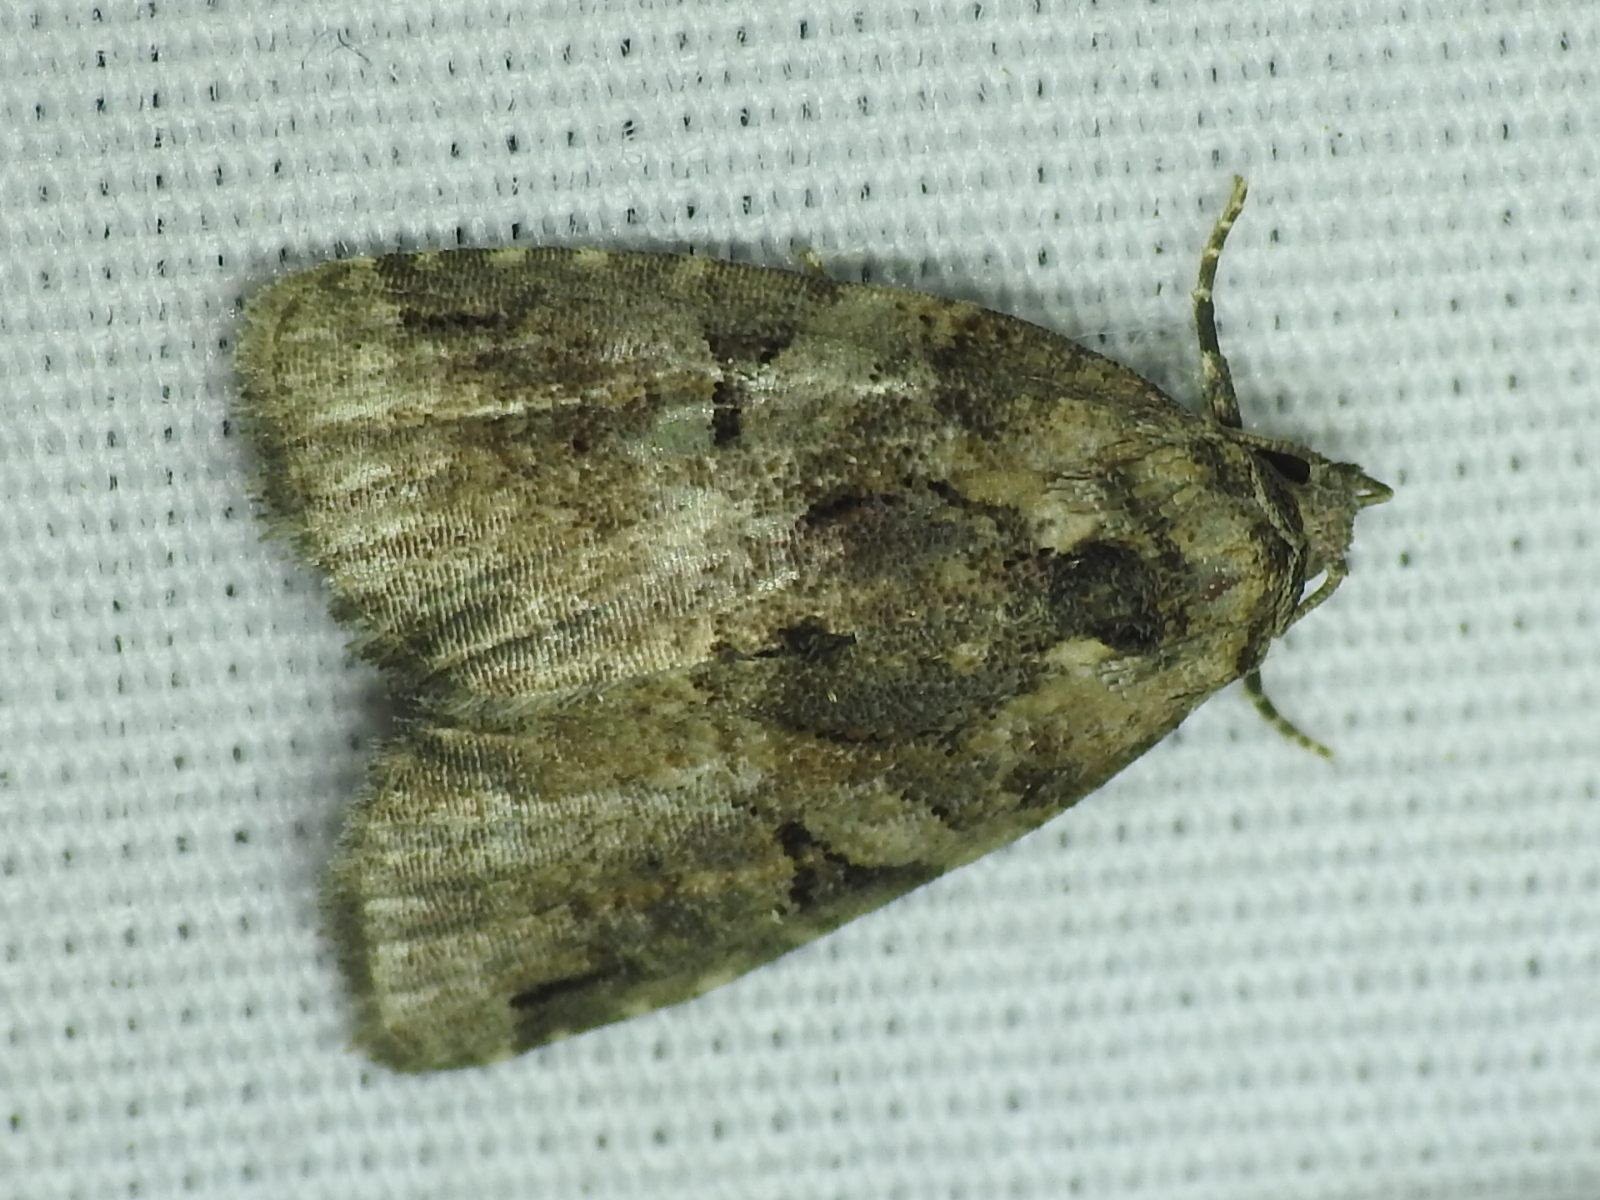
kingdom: Animalia
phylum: Arthropoda
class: Insecta
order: Lepidoptera
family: Noctuidae
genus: Pseudeustrotia
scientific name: Pseudeustrotia indeterminata
